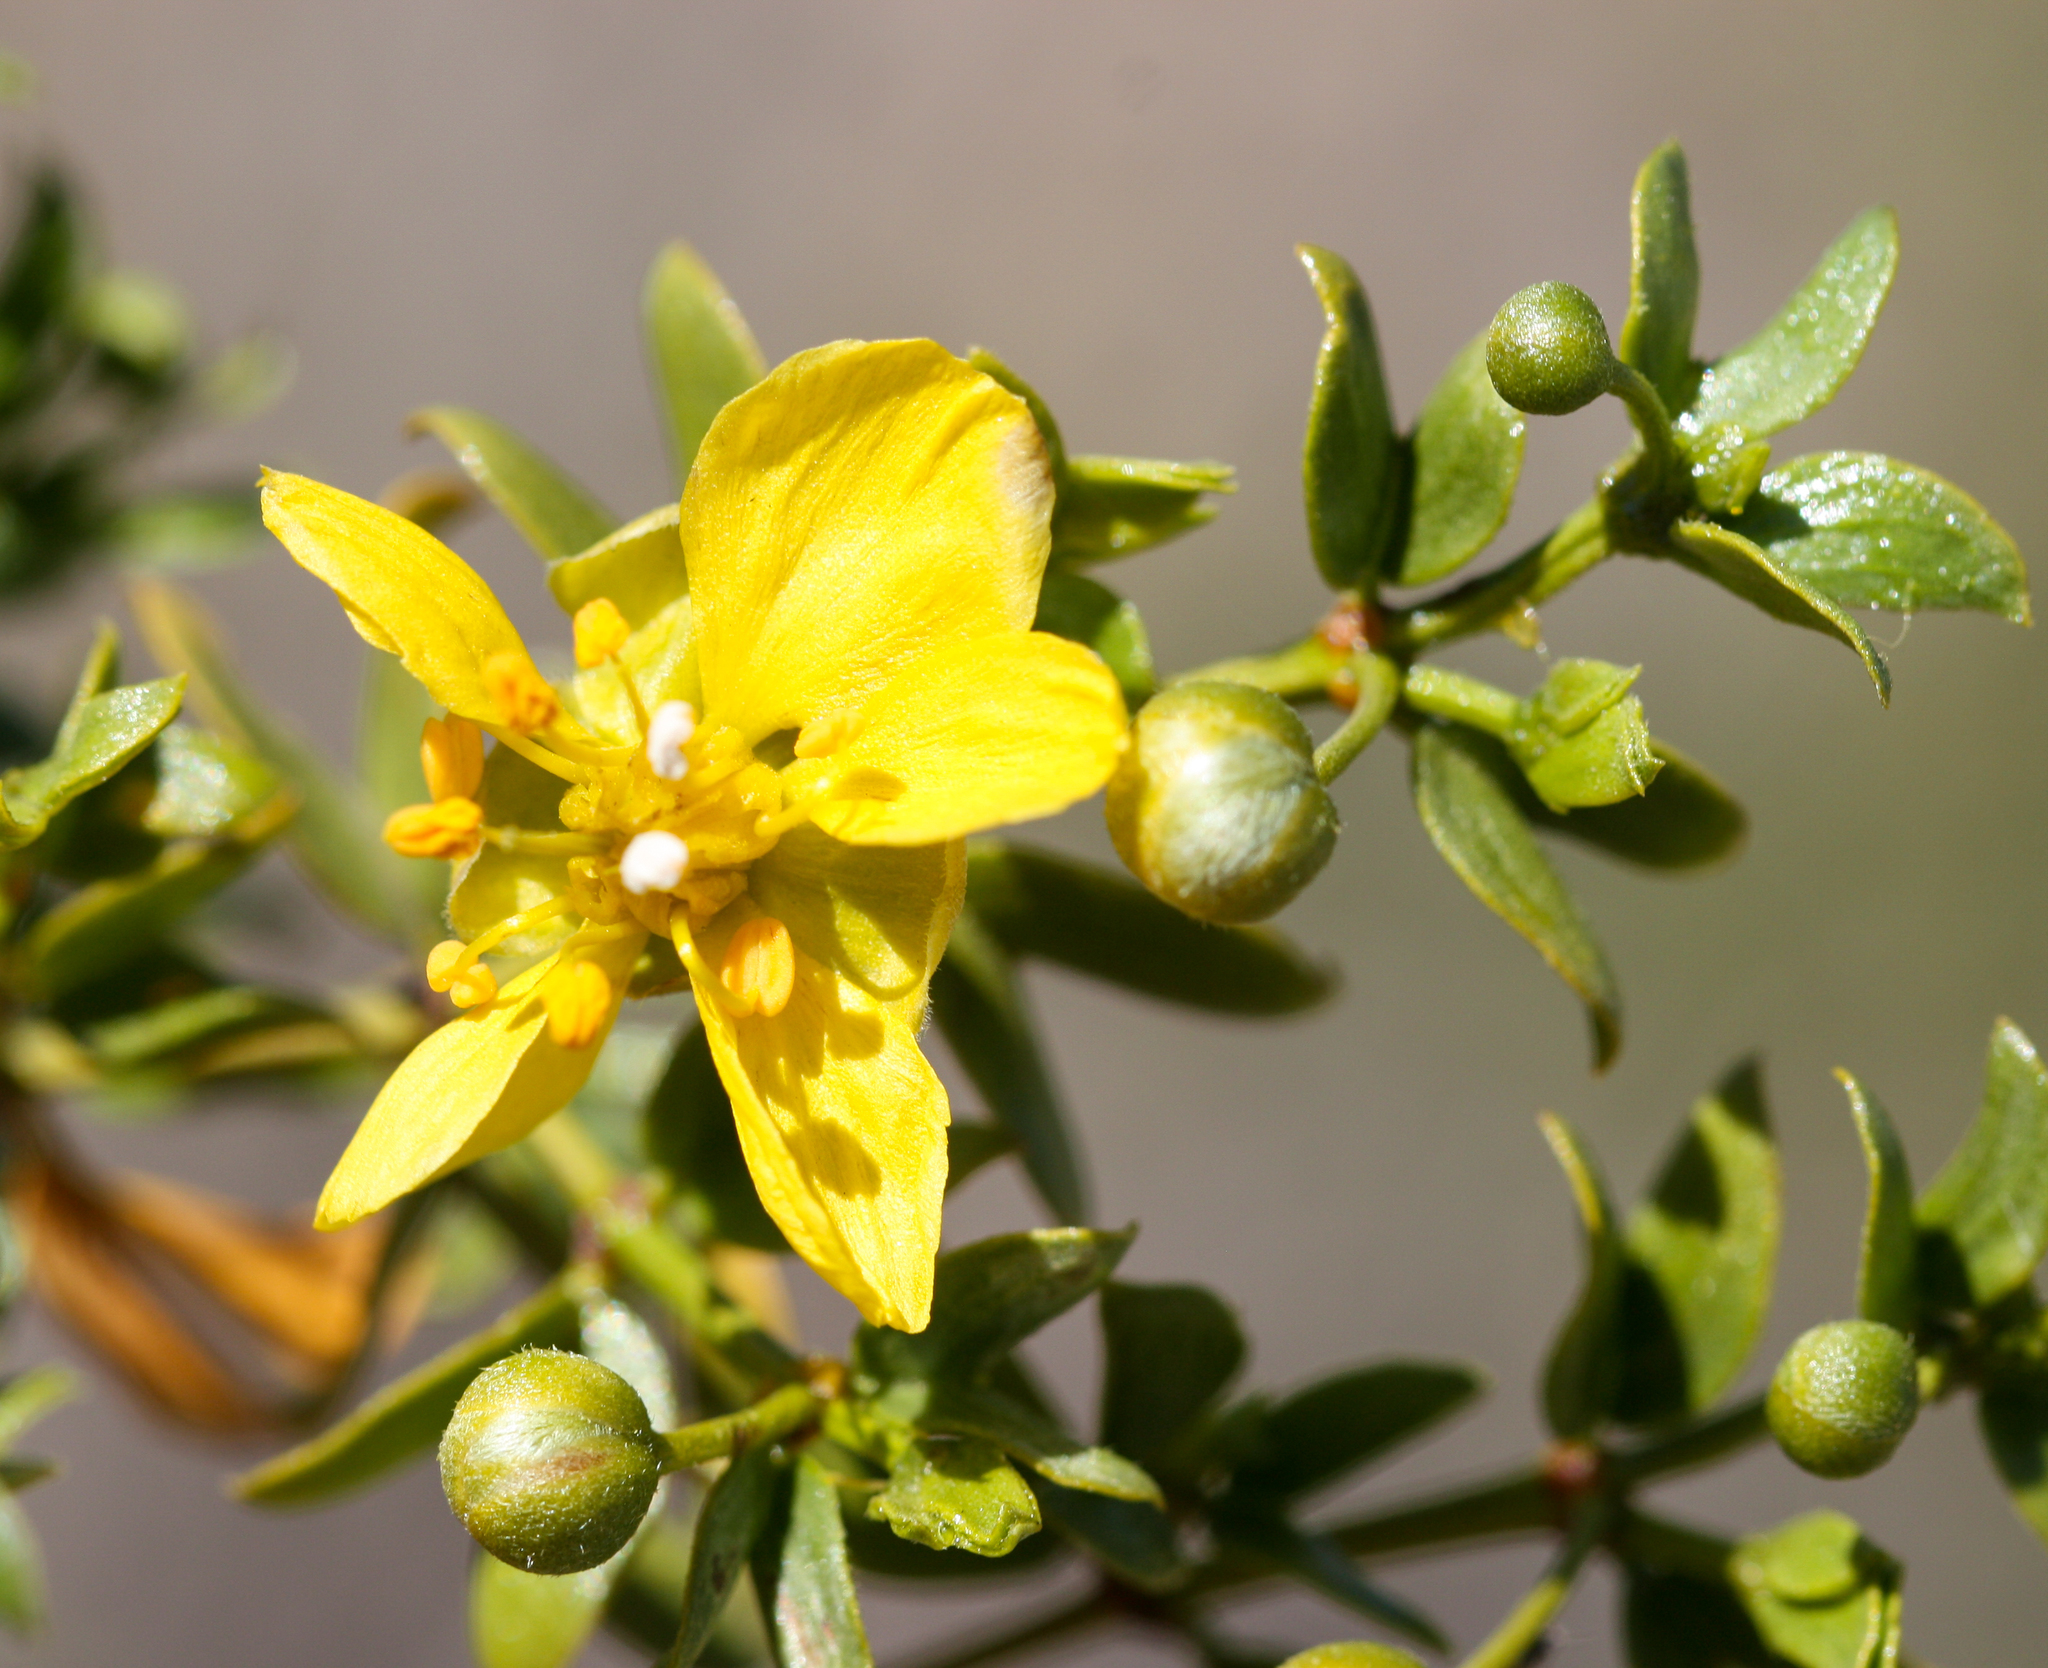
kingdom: Plantae
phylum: Tracheophyta
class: Magnoliopsida
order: Zygophyllales
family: Zygophyllaceae
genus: Larrea
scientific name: Larrea tridentata
